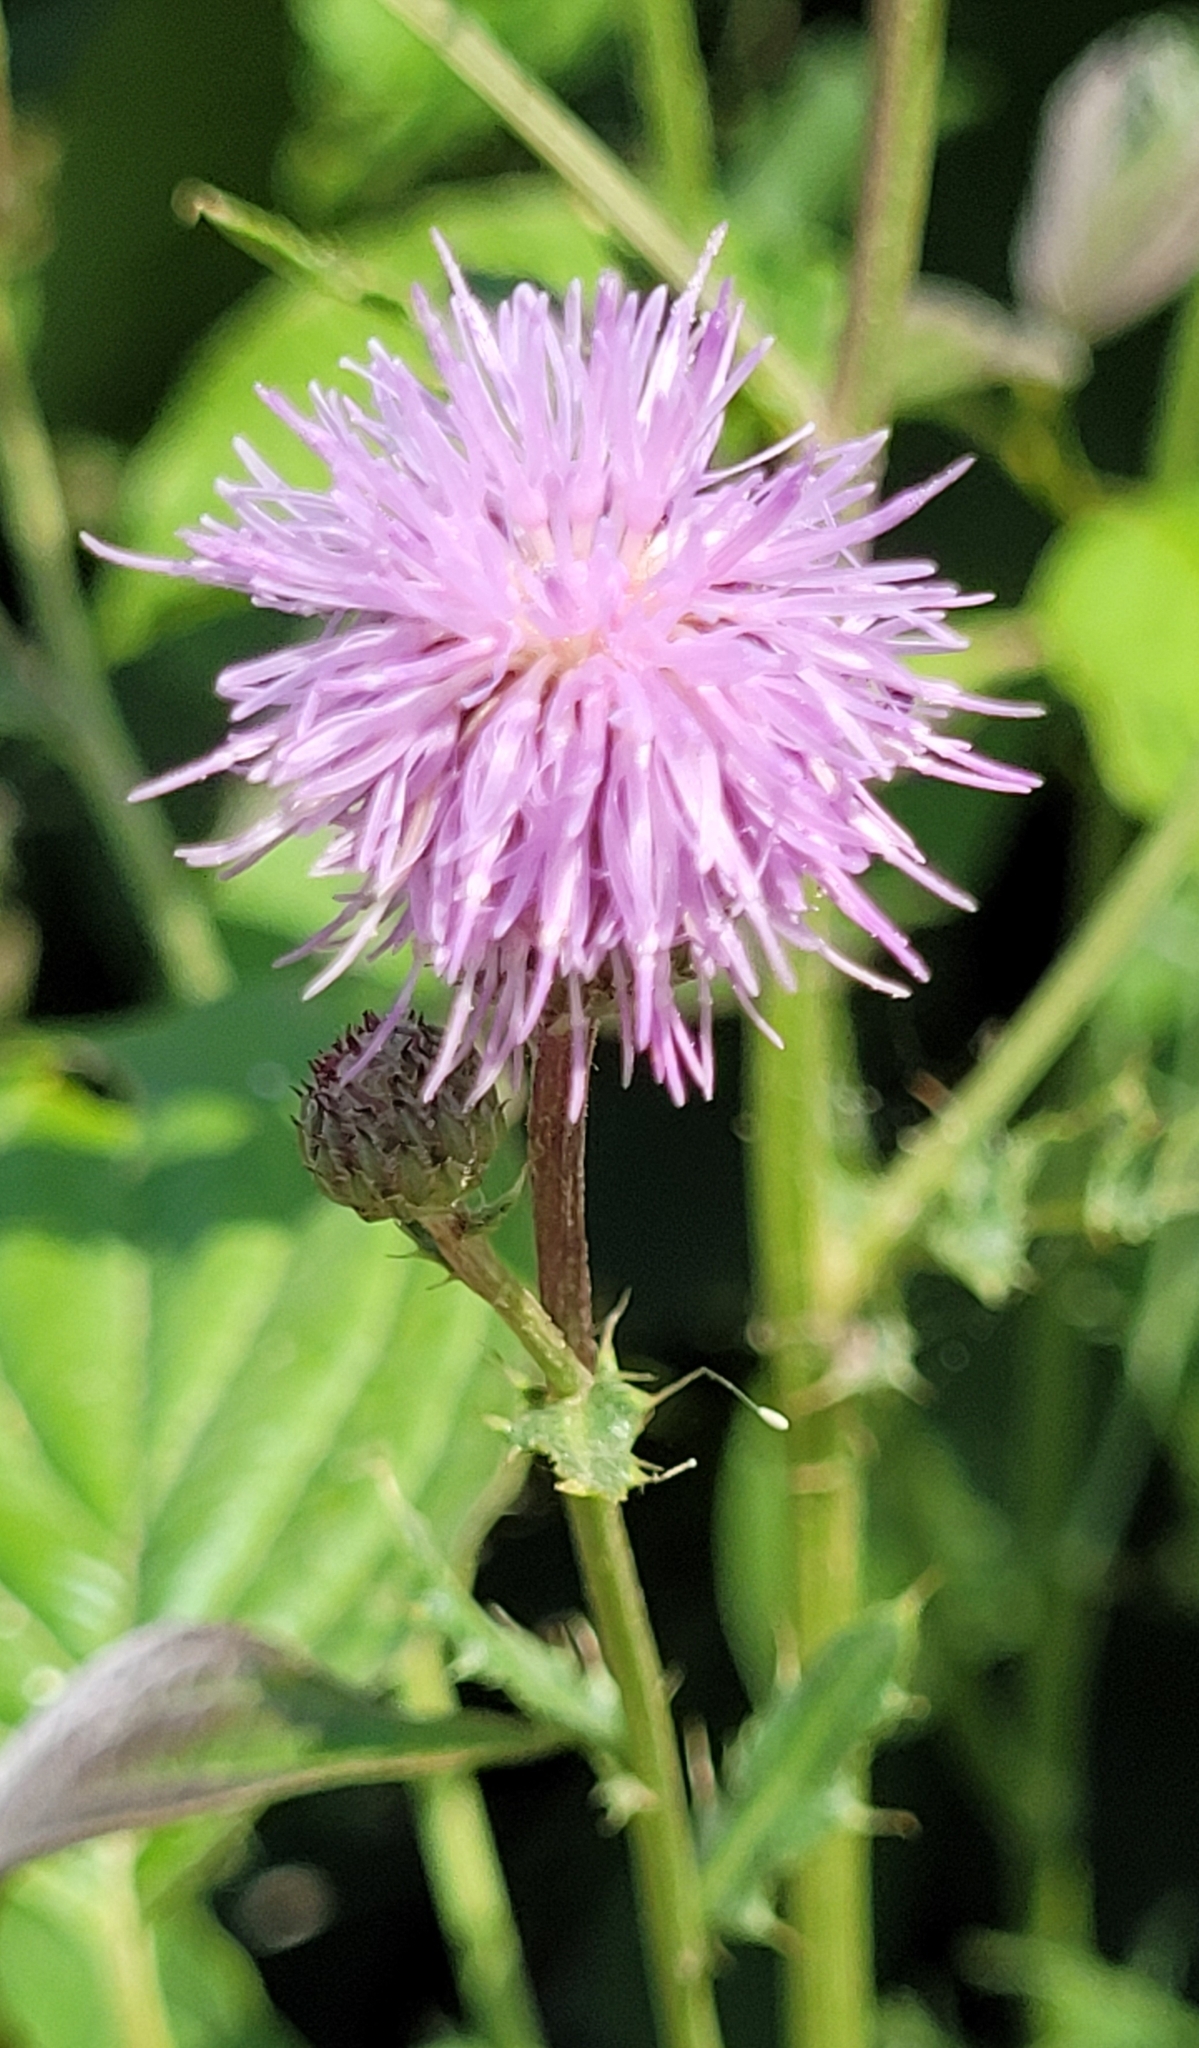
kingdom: Plantae
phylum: Tracheophyta
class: Magnoliopsida
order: Asterales
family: Asteraceae
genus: Cirsium
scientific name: Cirsium arvense
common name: Creeping thistle
